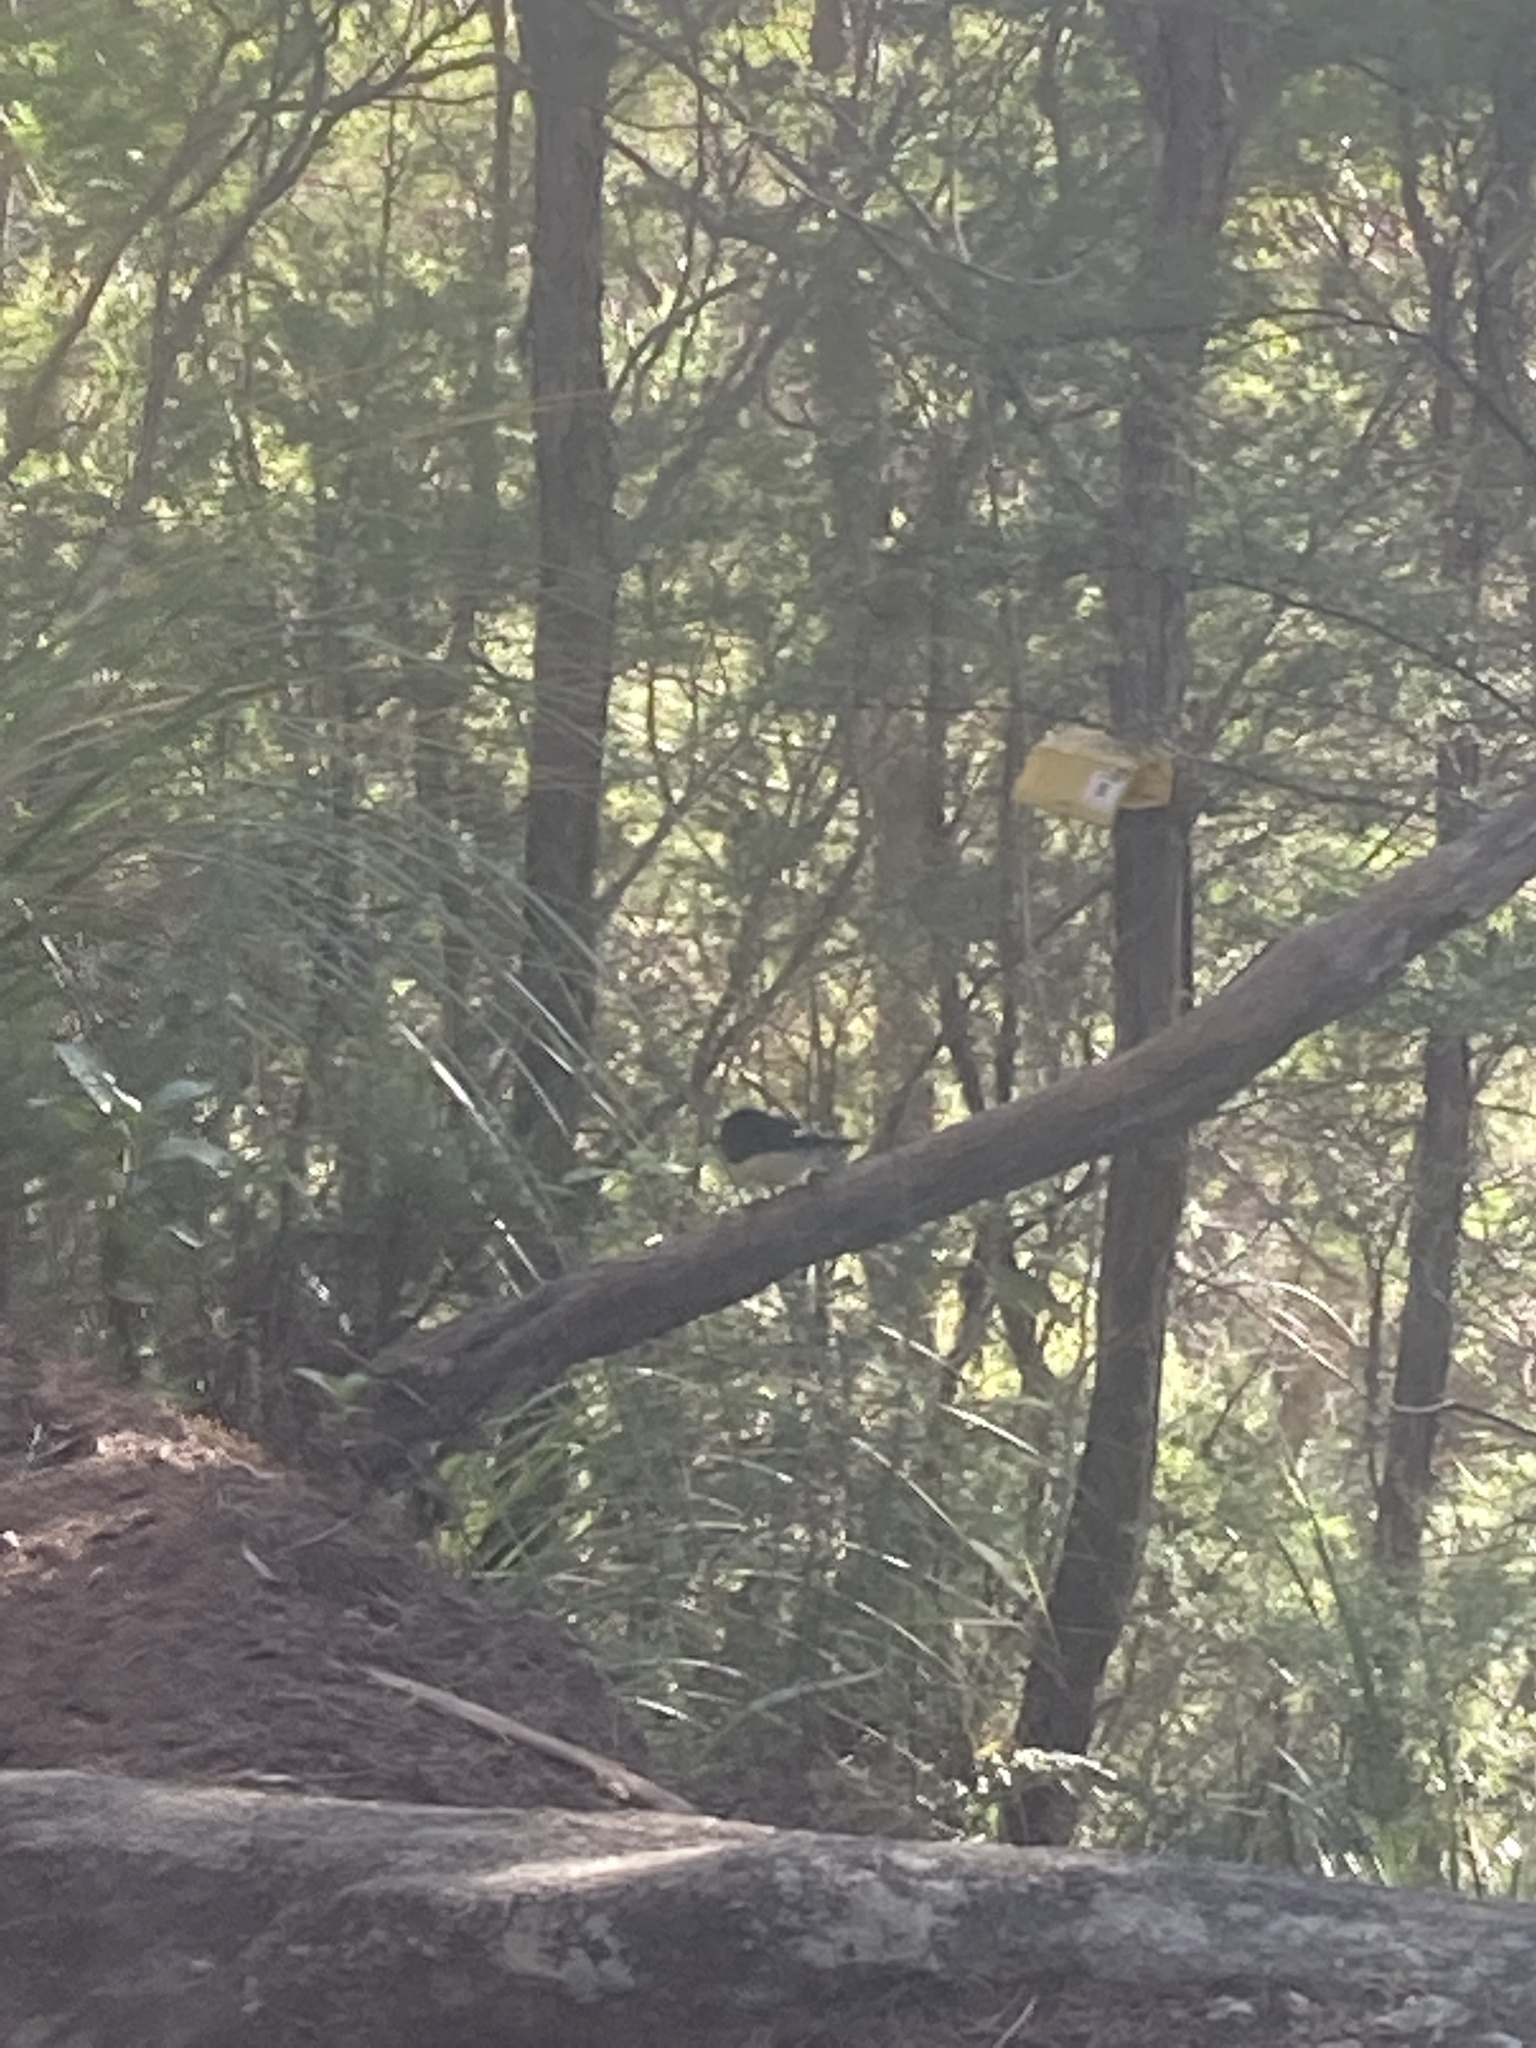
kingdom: Animalia
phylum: Chordata
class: Aves
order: Passeriformes
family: Petroicidae
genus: Petroica
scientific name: Petroica macrocephala
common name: Tomtit
